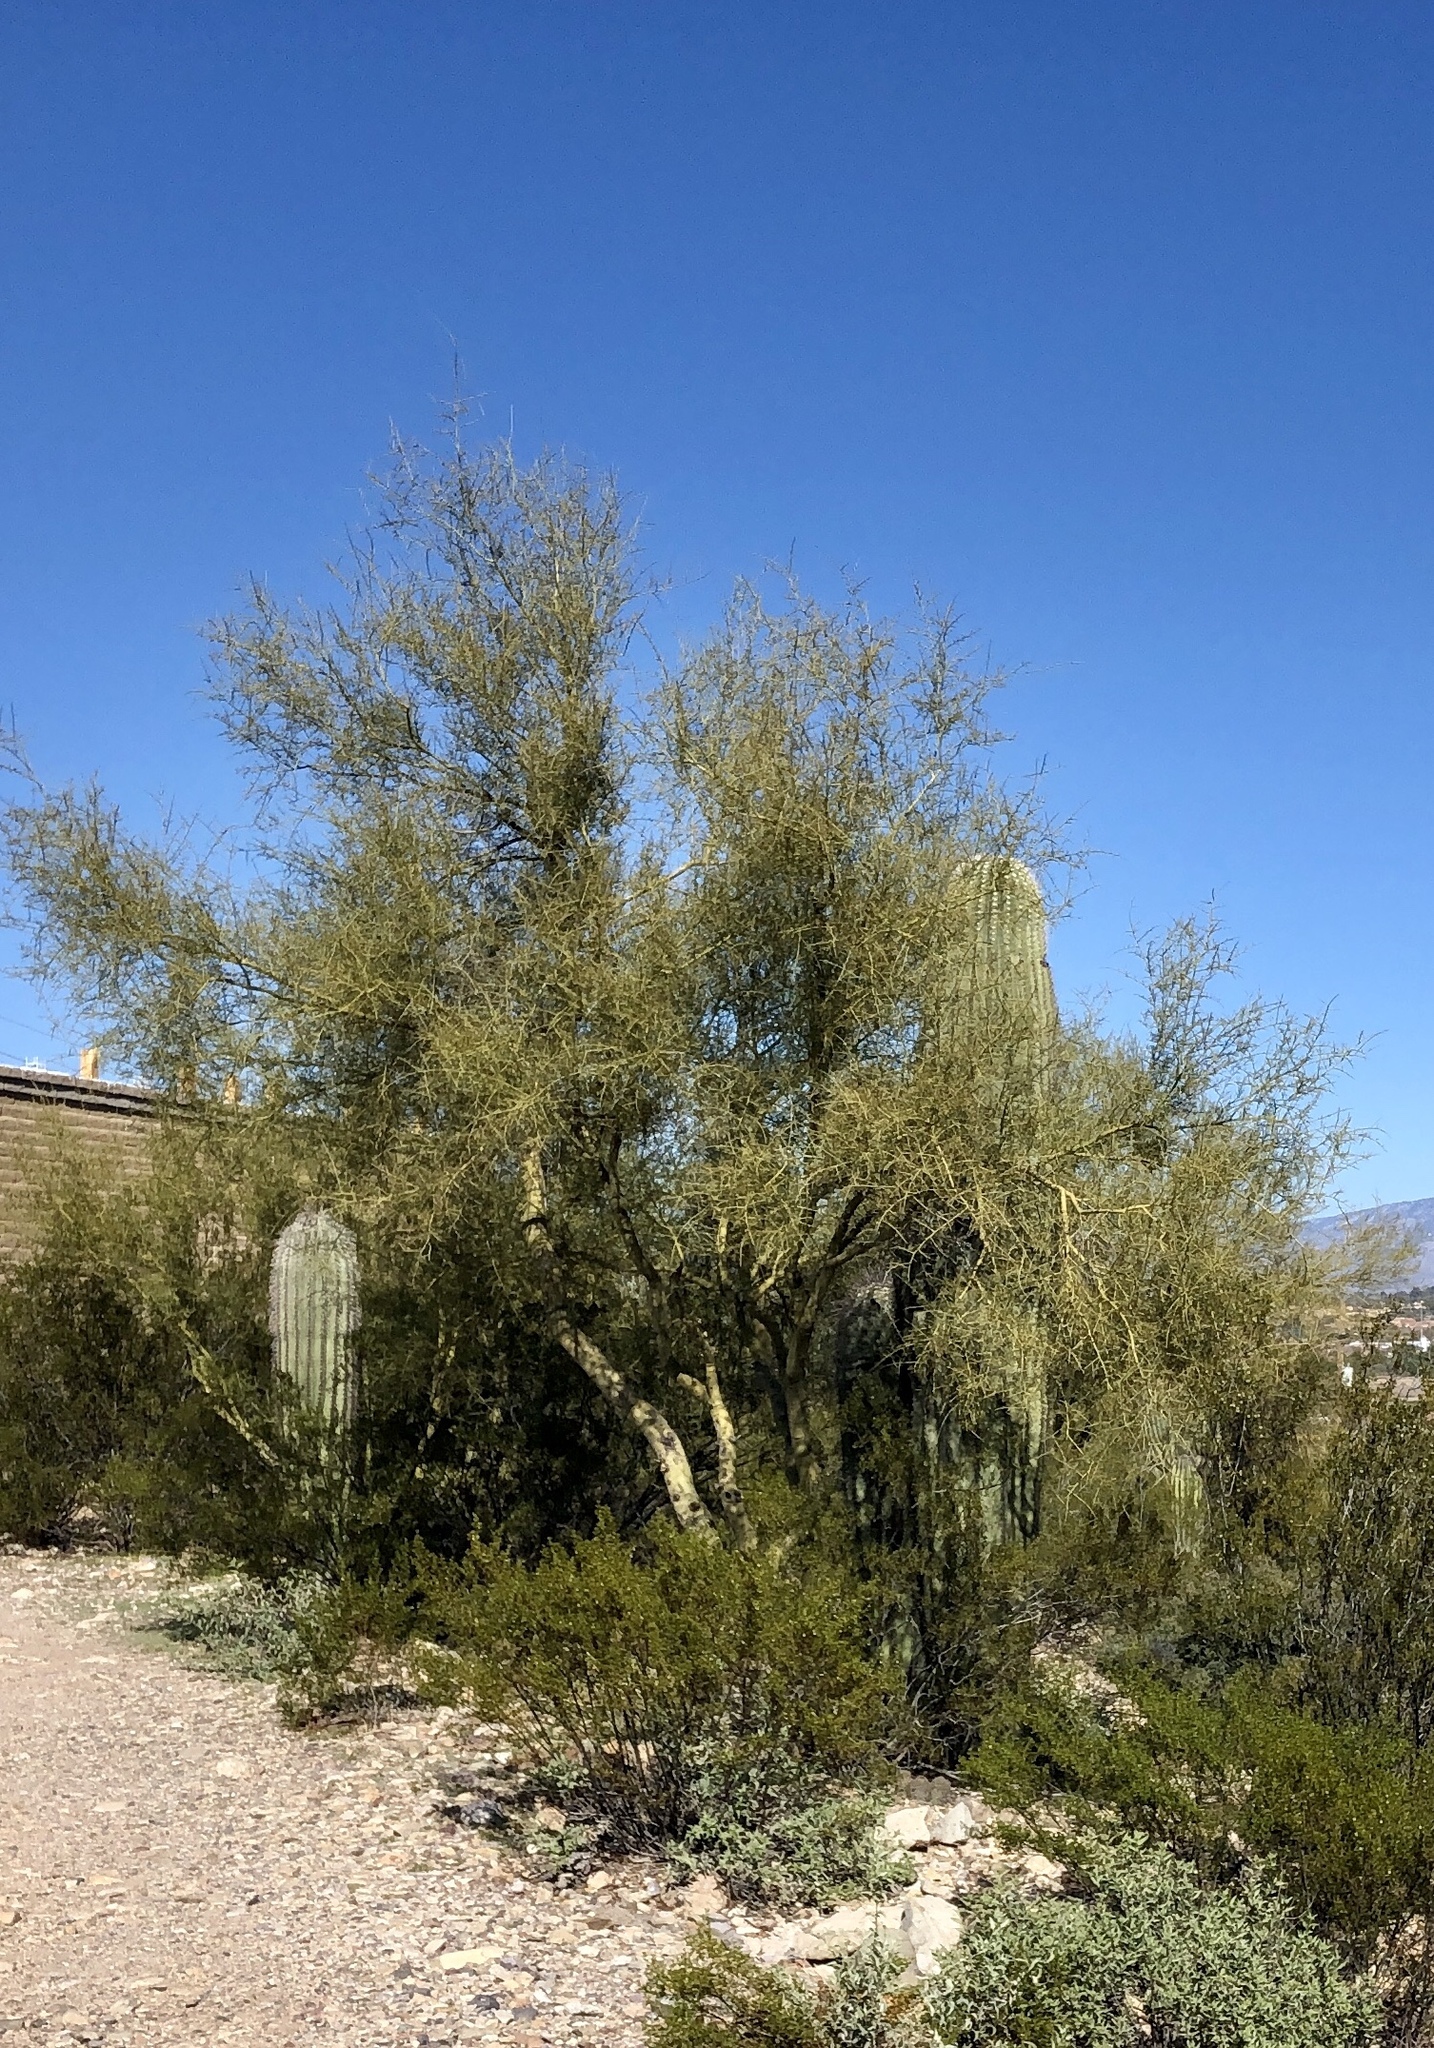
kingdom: Plantae
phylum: Tracheophyta
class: Magnoliopsida
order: Fabales
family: Fabaceae
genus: Parkinsonia
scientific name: Parkinsonia microphylla
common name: Yellow paloverde
